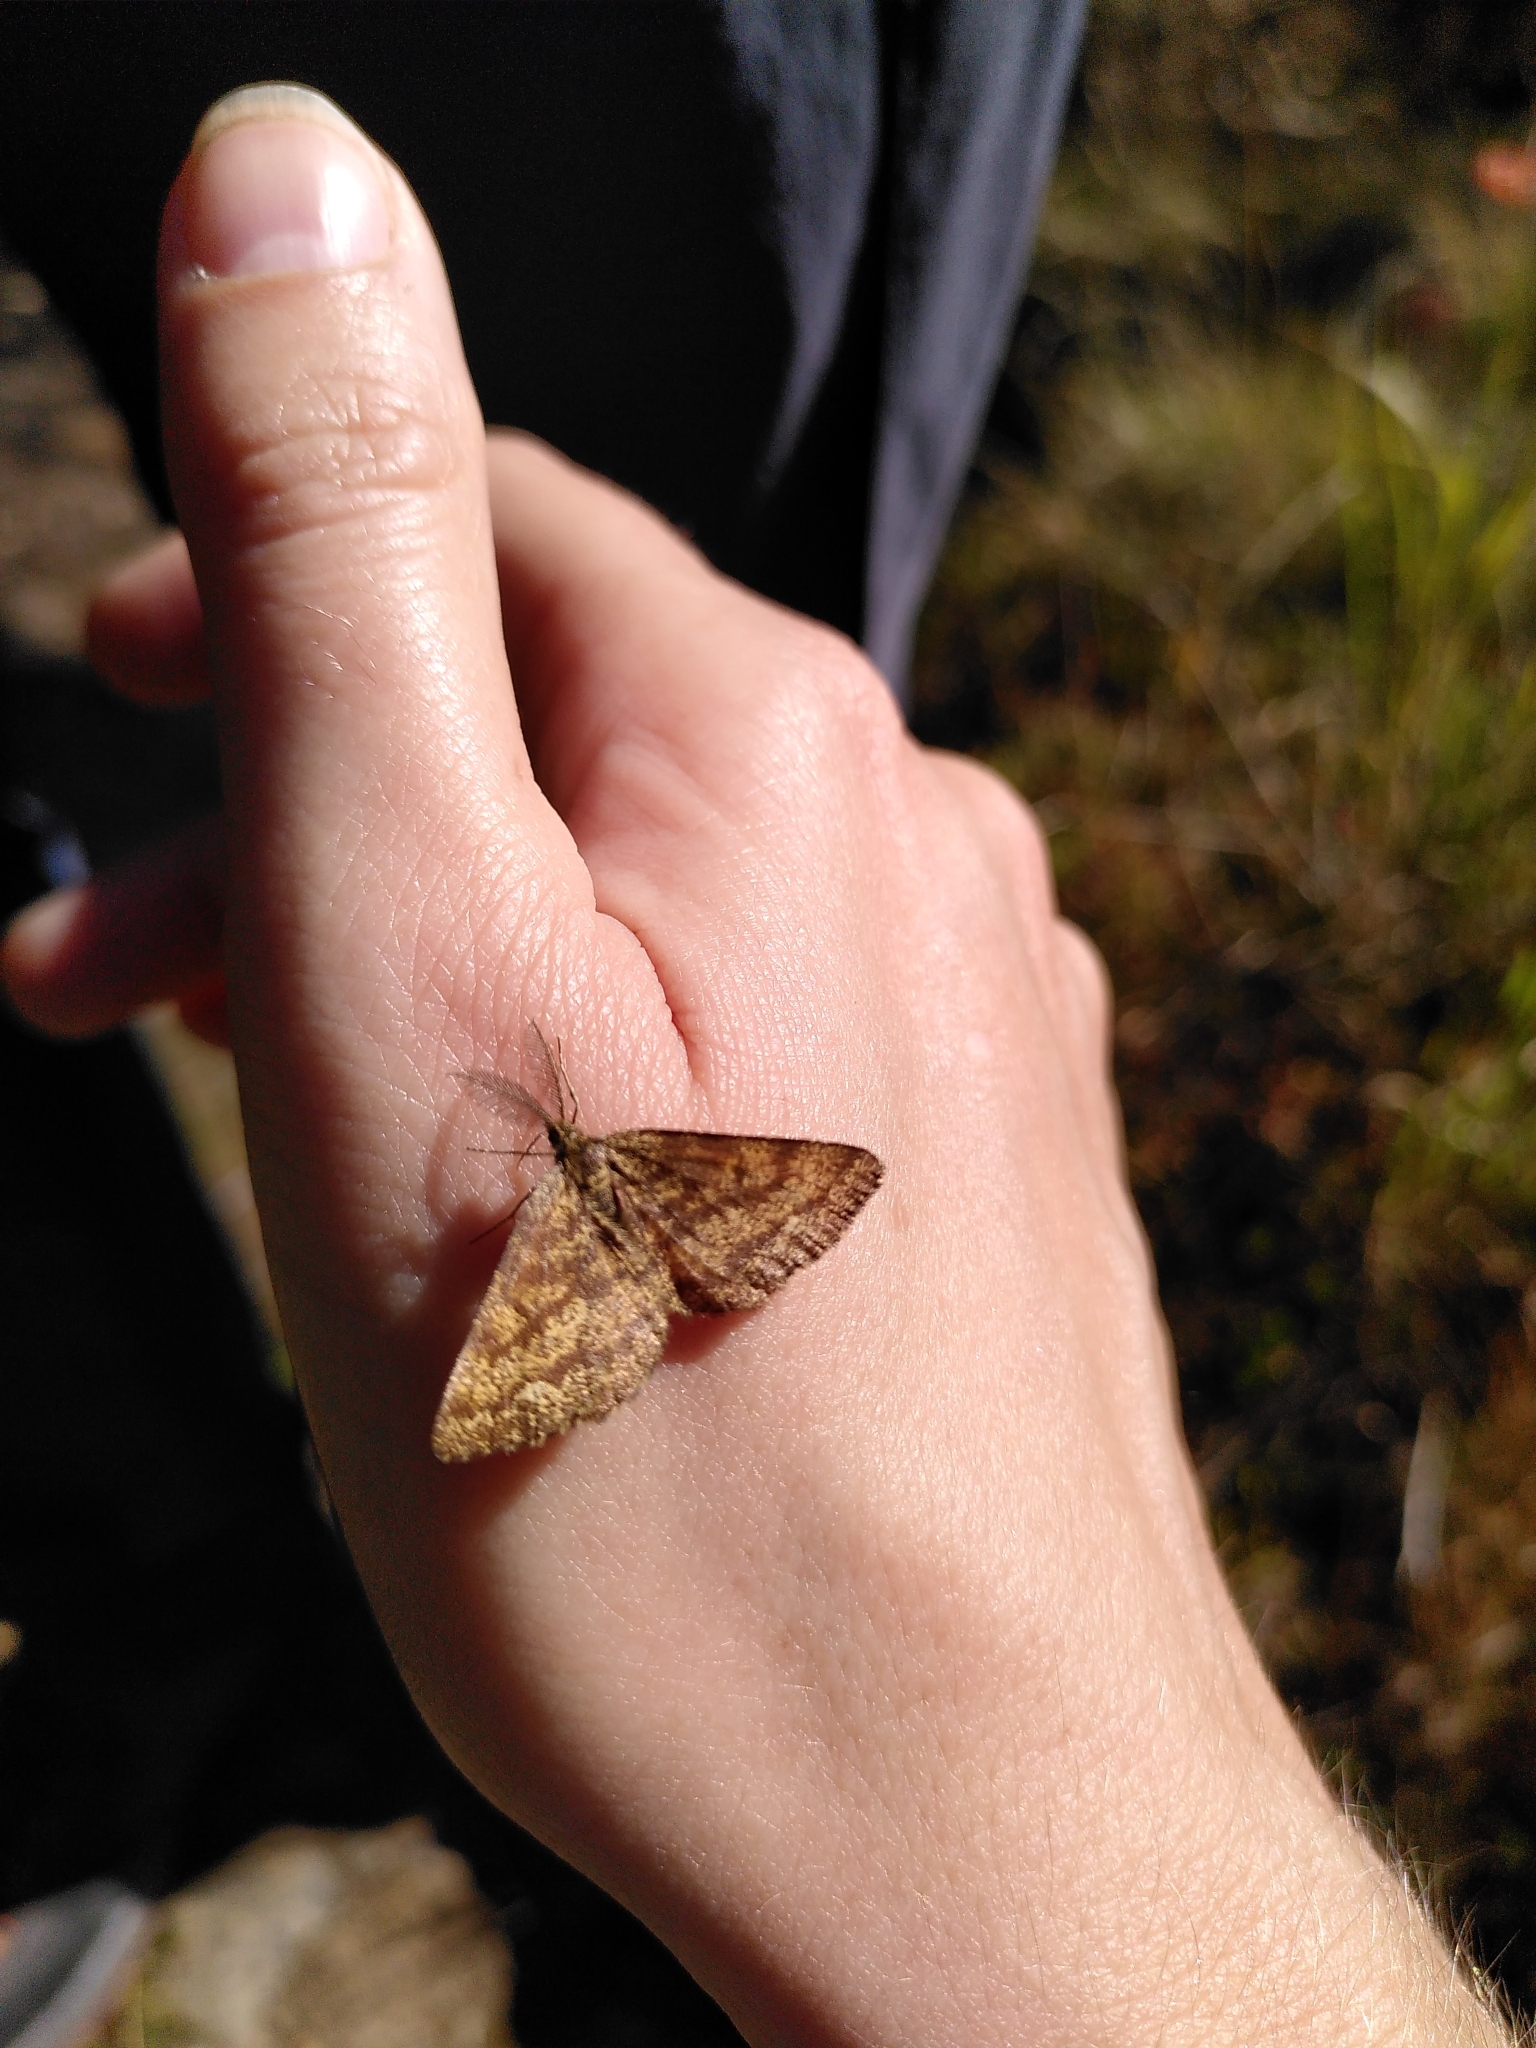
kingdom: Animalia
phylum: Arthropoda
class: Insecta
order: Lepidoptera
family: Geometridae
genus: Ematurga
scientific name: Ematurga atomaria
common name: Common heath
